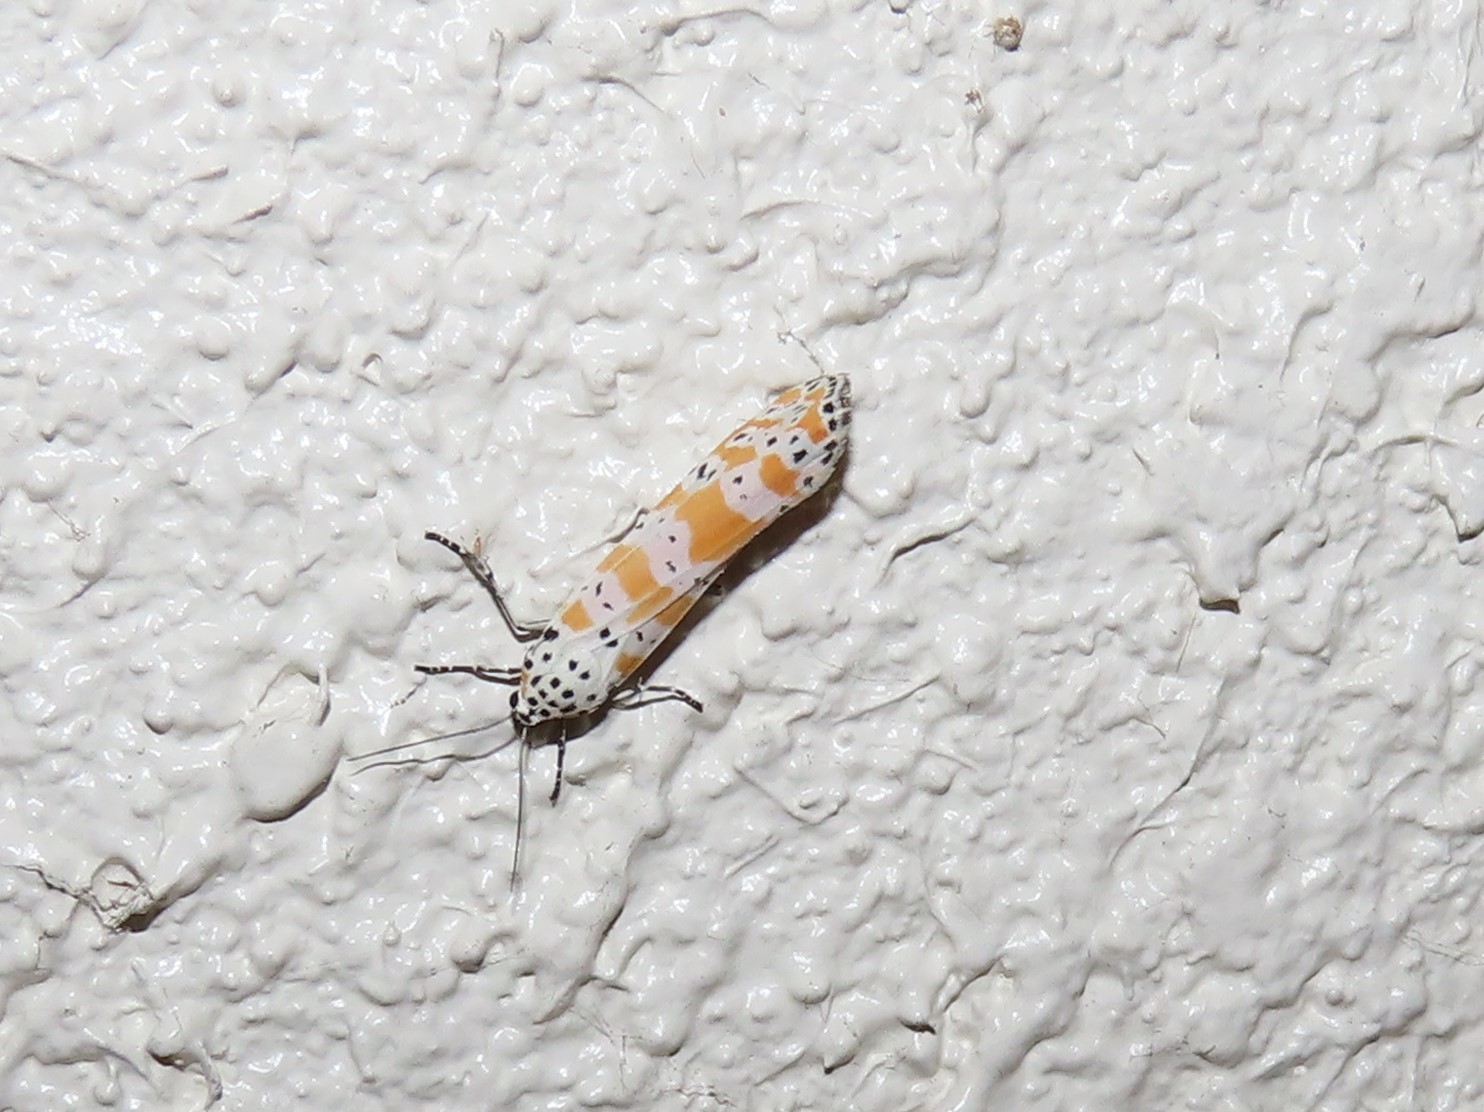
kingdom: Animalia
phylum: Arthropoda
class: Insecta
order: Lepidoptera
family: Erebidae
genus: Utetheisa
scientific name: Utetheisa ornatrix
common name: Beautiful utetheisa
